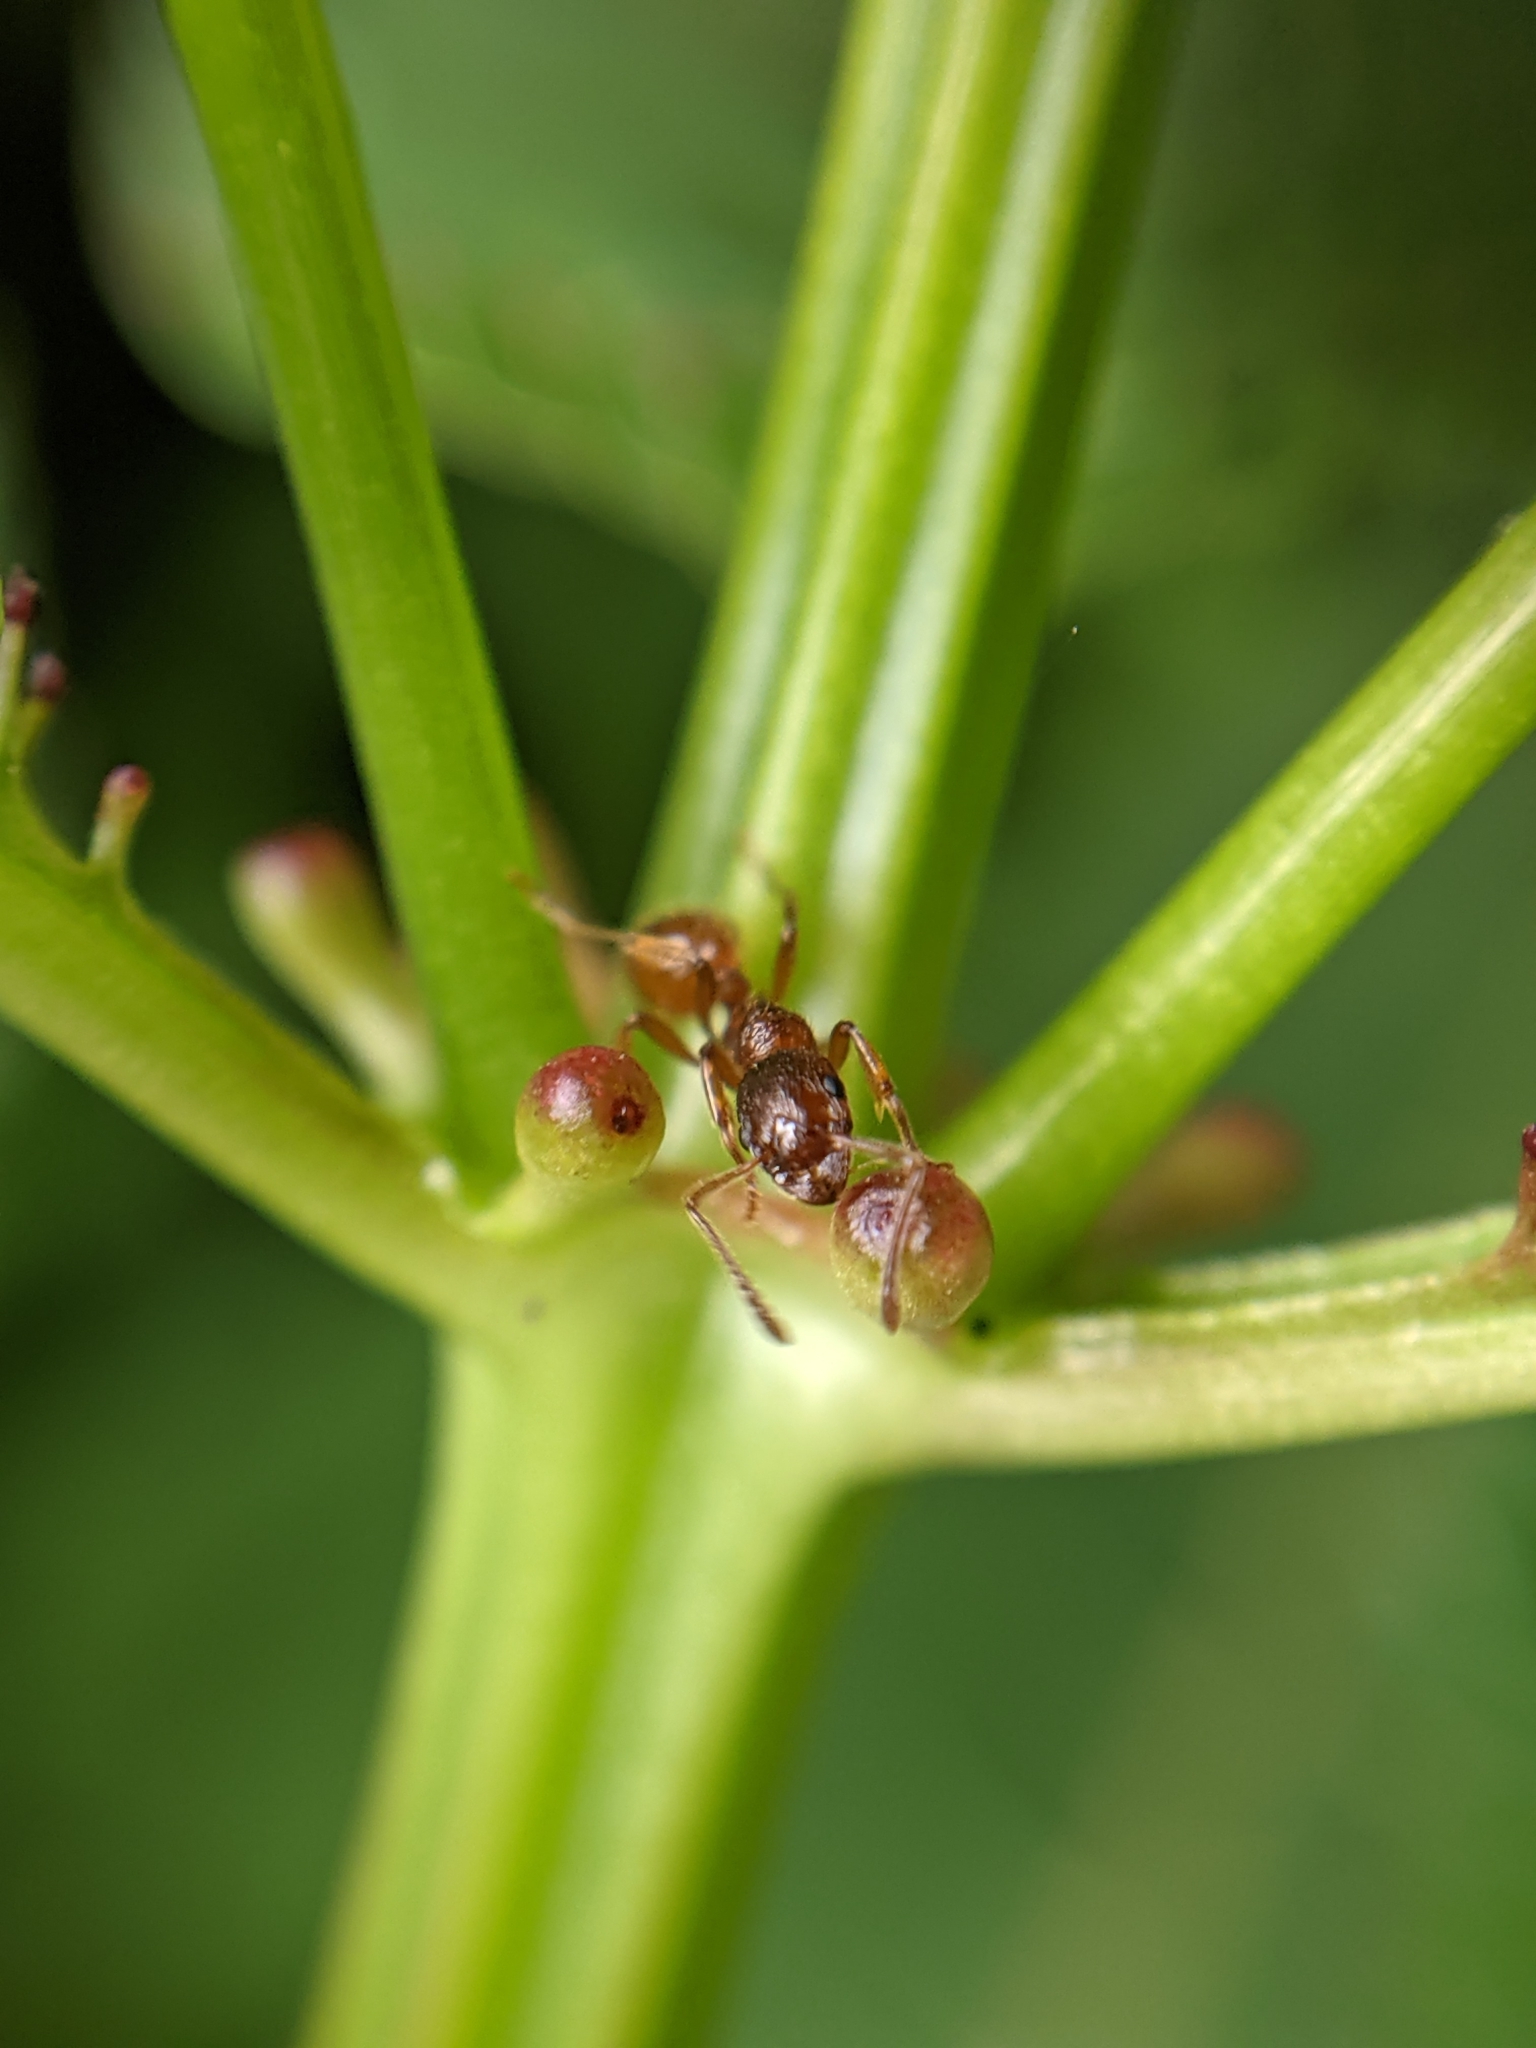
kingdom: Animalia
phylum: Arthropoda
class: Insecta
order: Hymenoptera
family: Formicidae
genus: Myrmica
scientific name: Myrmica rubra
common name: European fire ant
